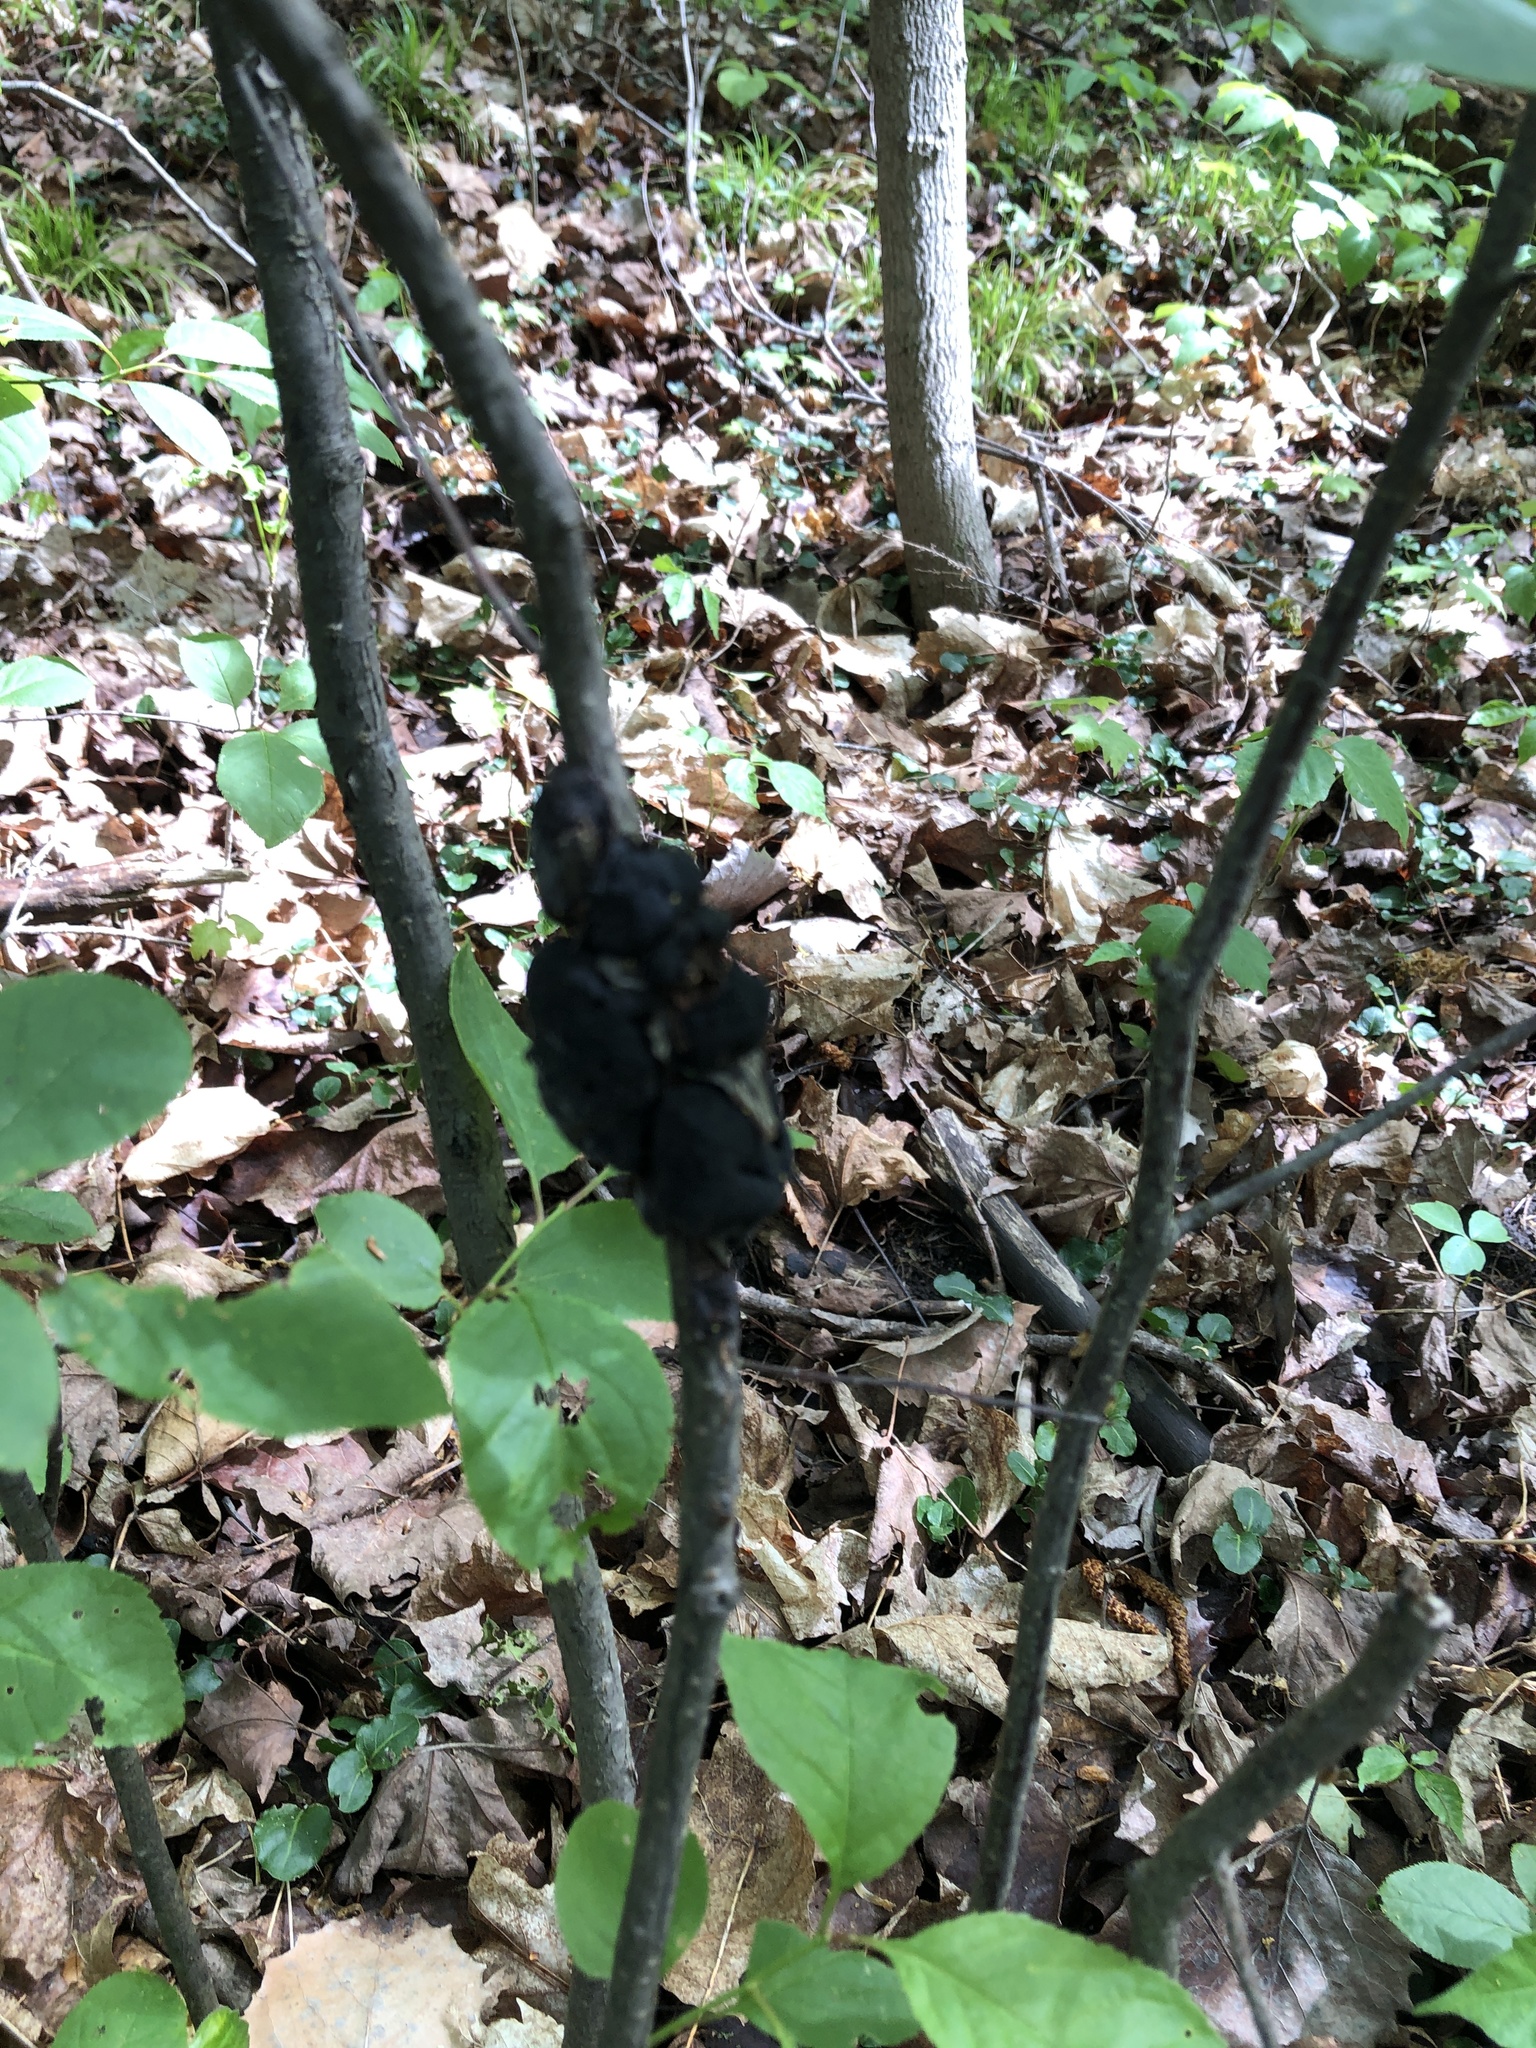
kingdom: Fungi
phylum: Ascomycota
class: Dothideomycetes
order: Venturiales
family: Venturiaceae
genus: Apiosporina
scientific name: Apiosporina morbosa
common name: Black knot
